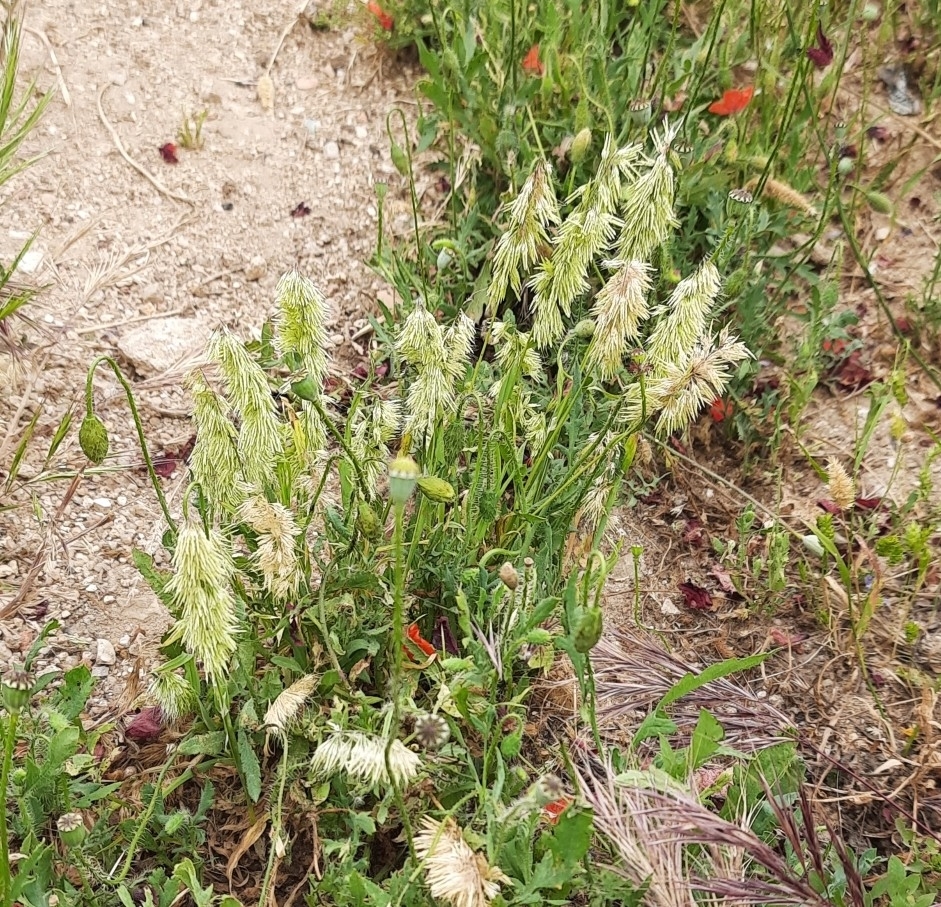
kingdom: Plantae
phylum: Tracheophyta
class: Liliopsida
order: Poales
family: Poaceae
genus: Lamarckia
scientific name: Lamarckia aurea
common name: Golden dog's-tail
